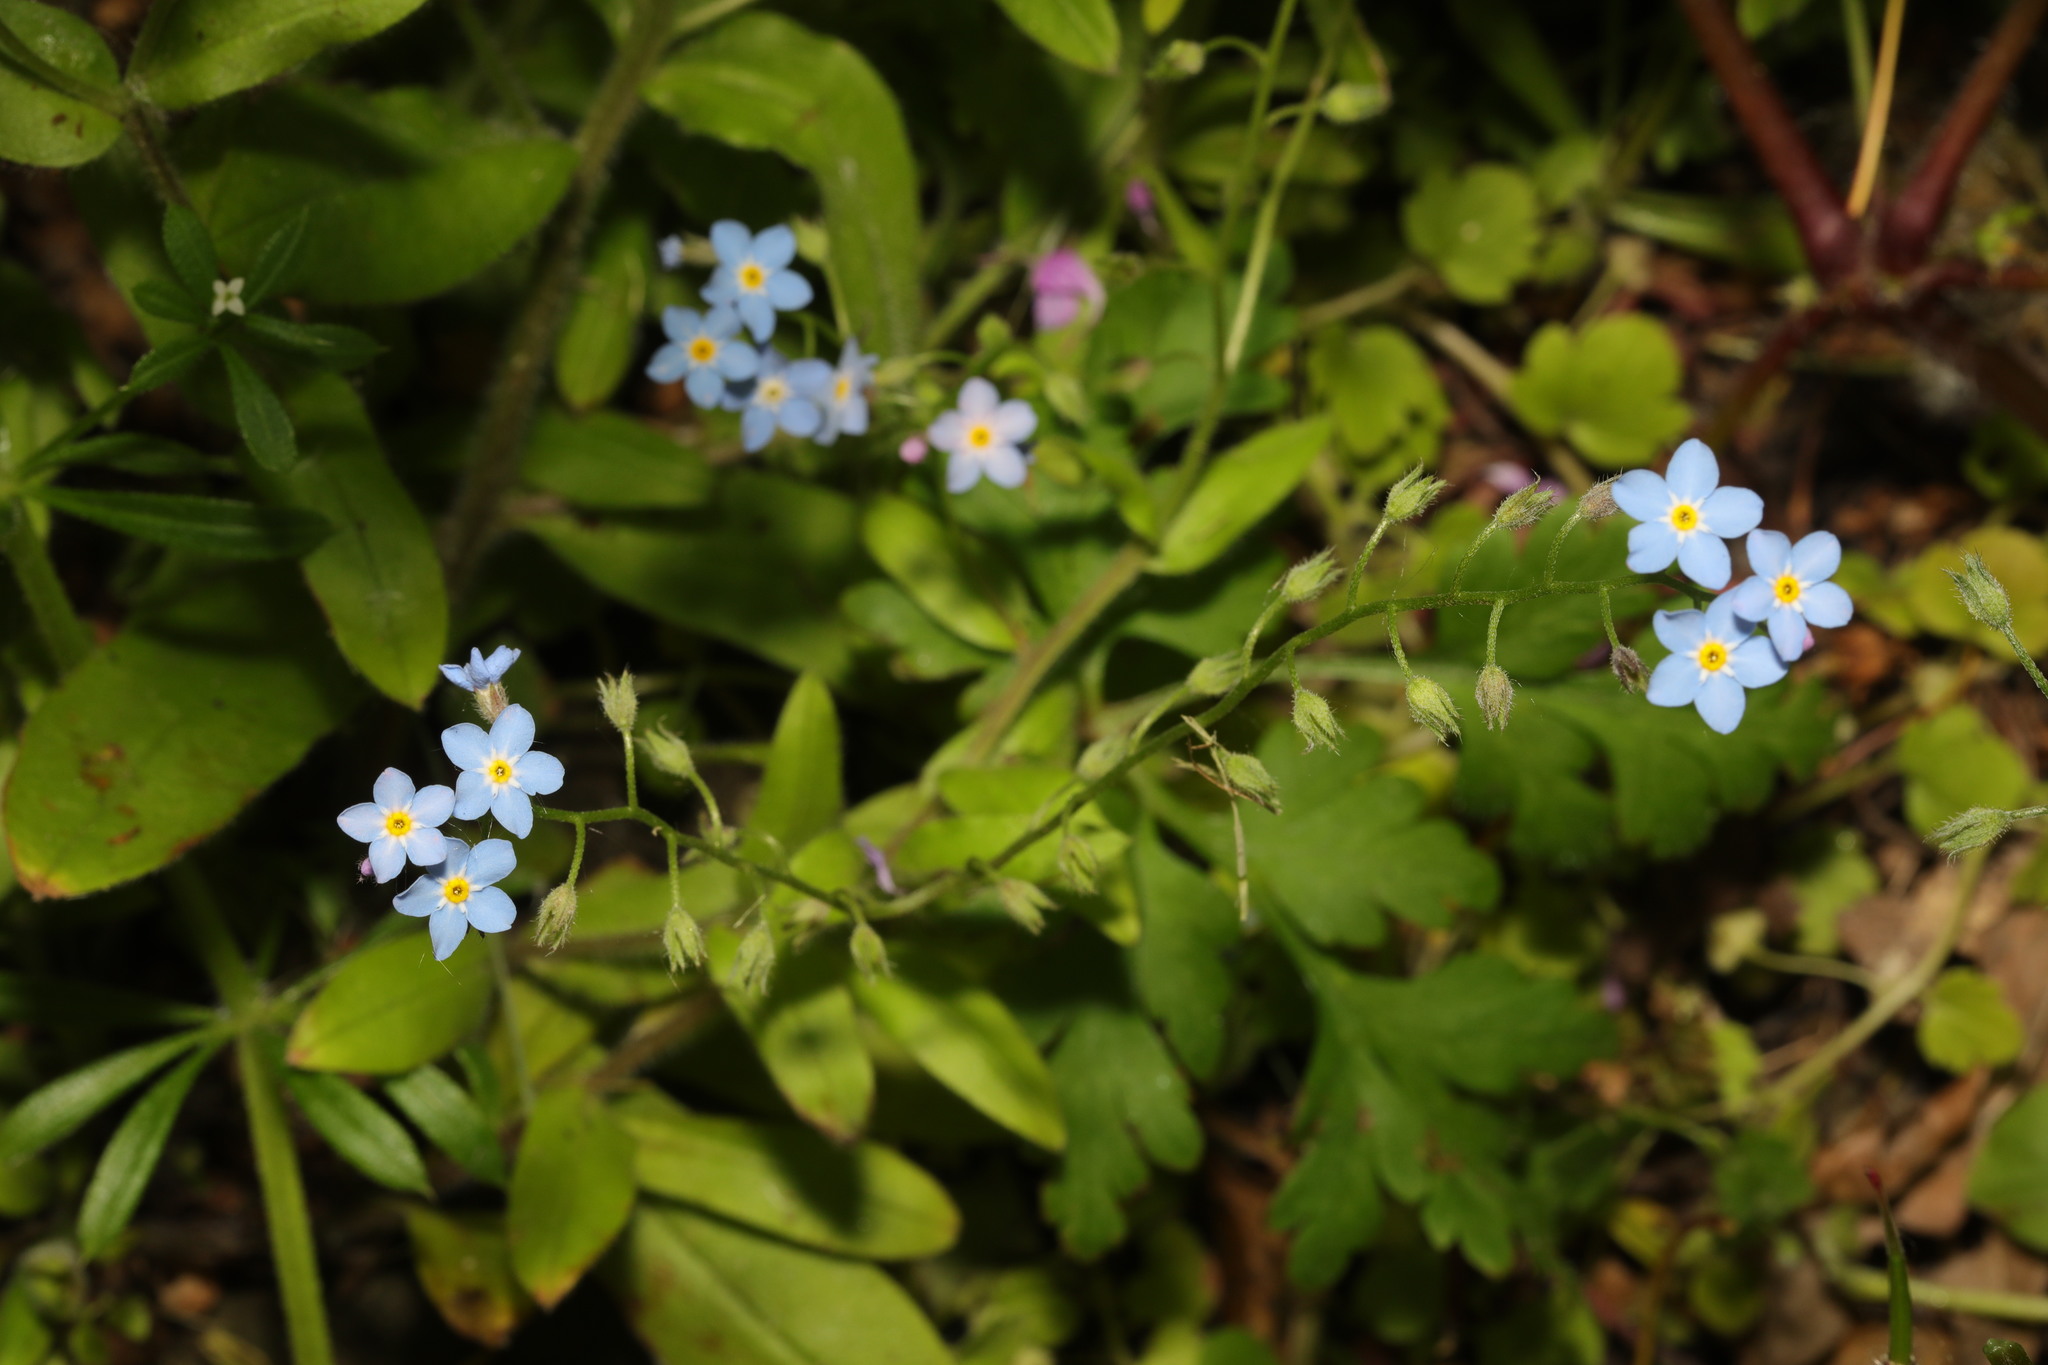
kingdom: Plantae
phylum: Tracheophyta
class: Magnoliopsida
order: Boraginales
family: Boraginaceae
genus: Myosotis
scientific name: Myosotis sylvatica
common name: Wood forget-me-not
